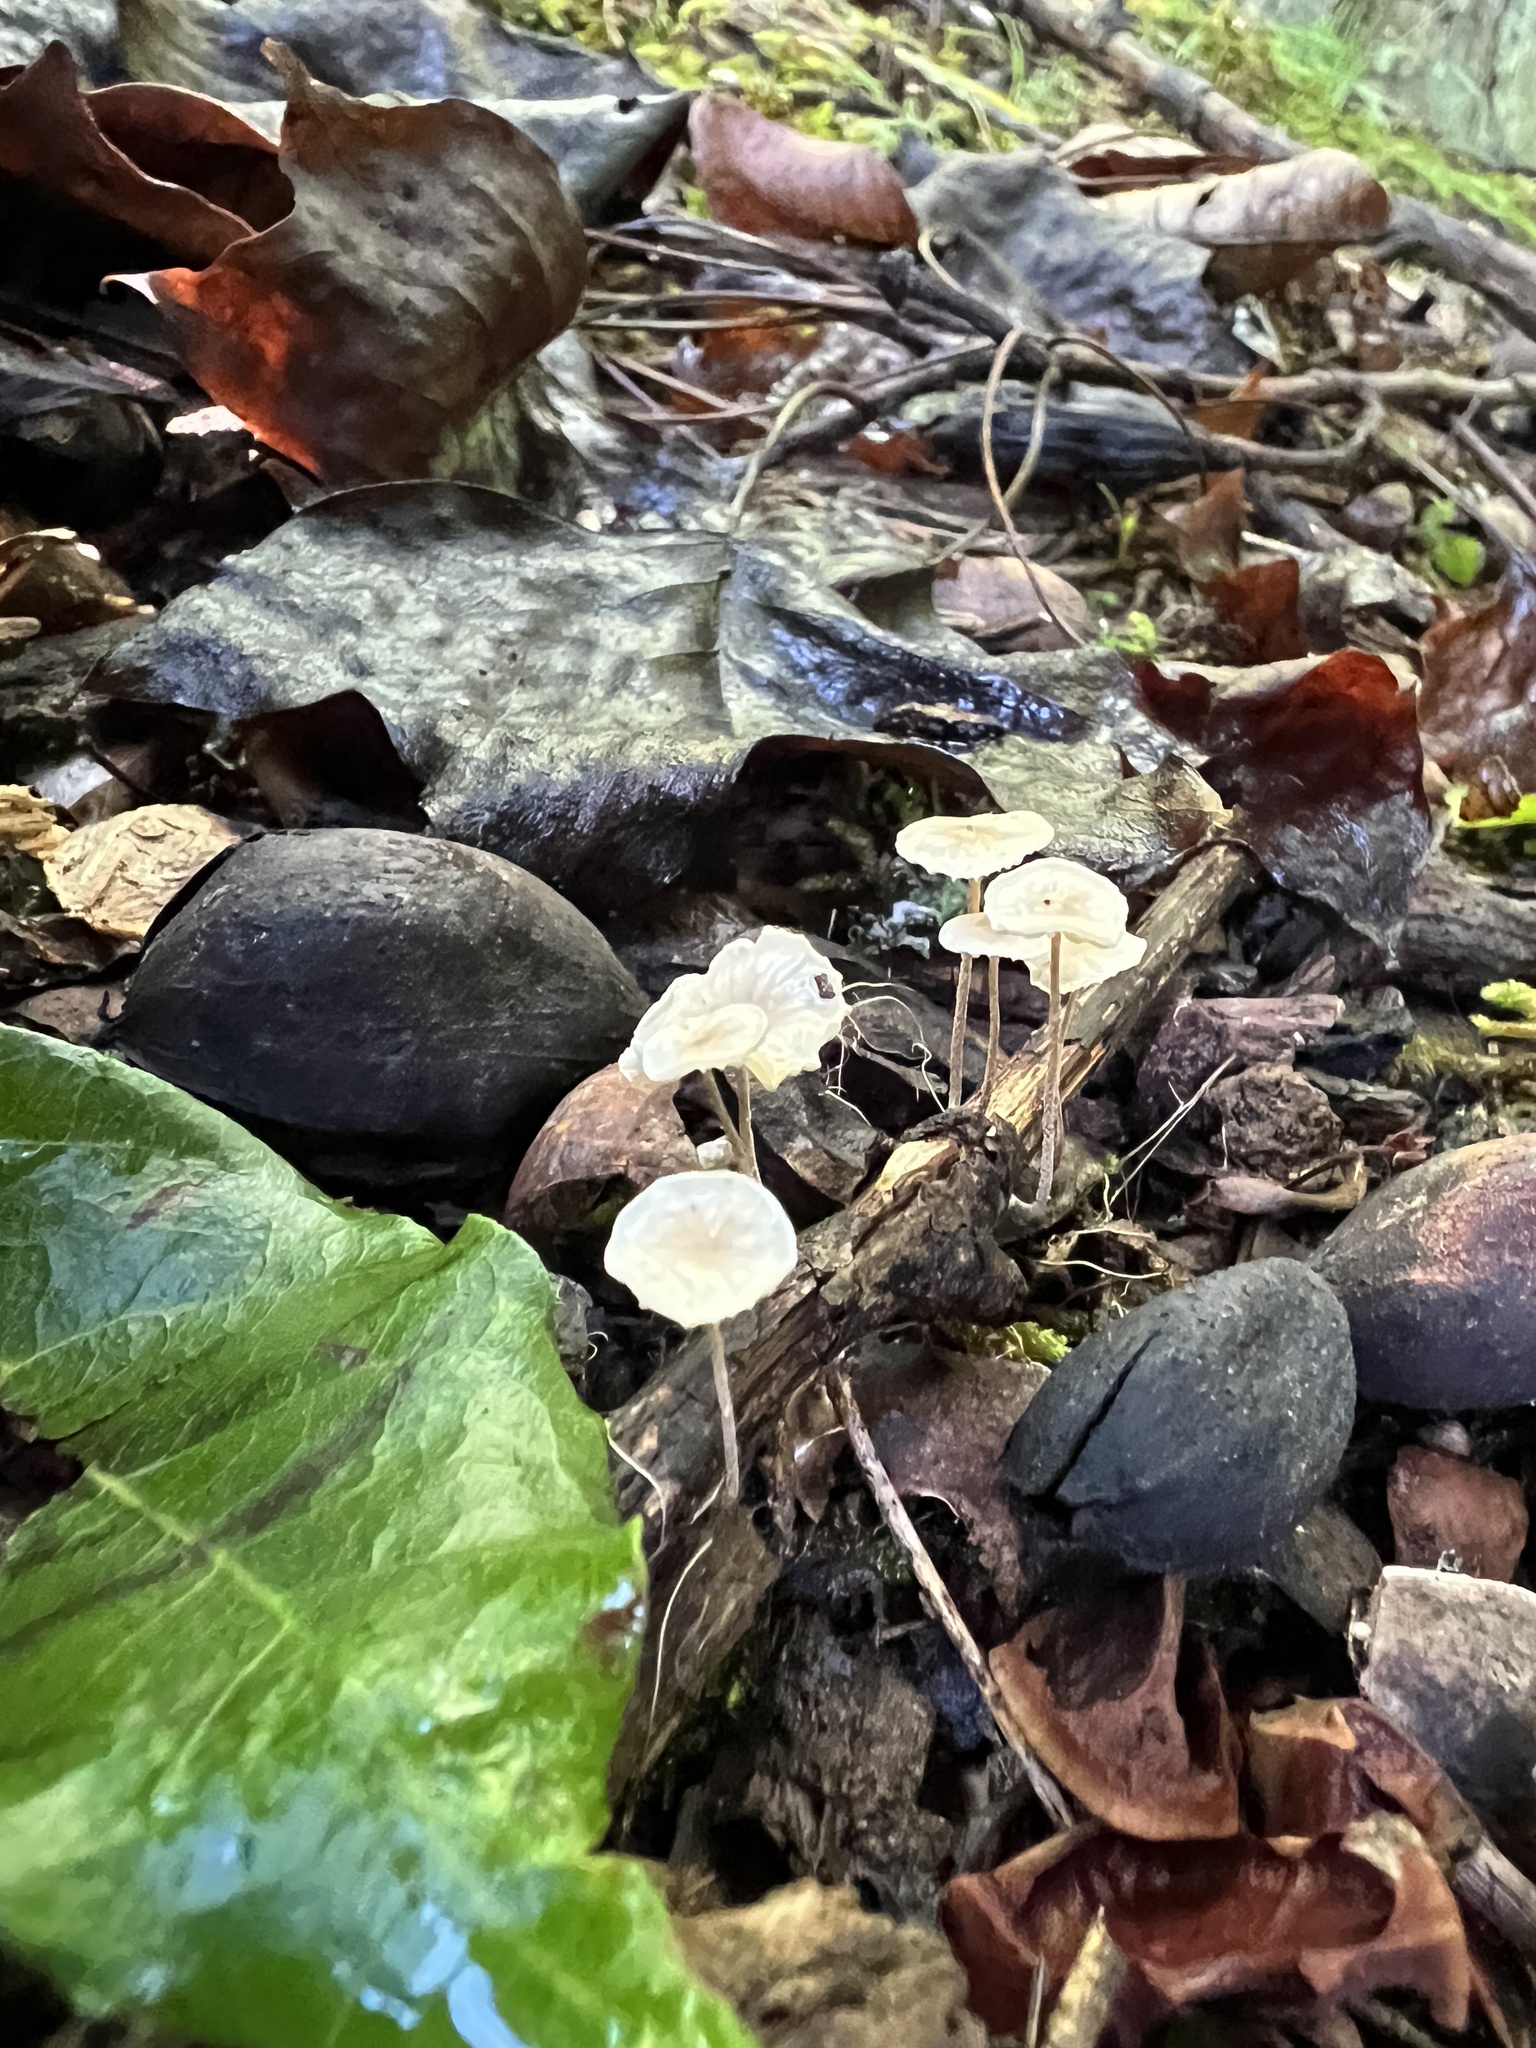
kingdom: Fungi
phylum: Basidiomycota
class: Agaricomycetes
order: Agaricales
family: Omphalotaceae
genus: Mycetinis
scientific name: Mycetinis opacus
